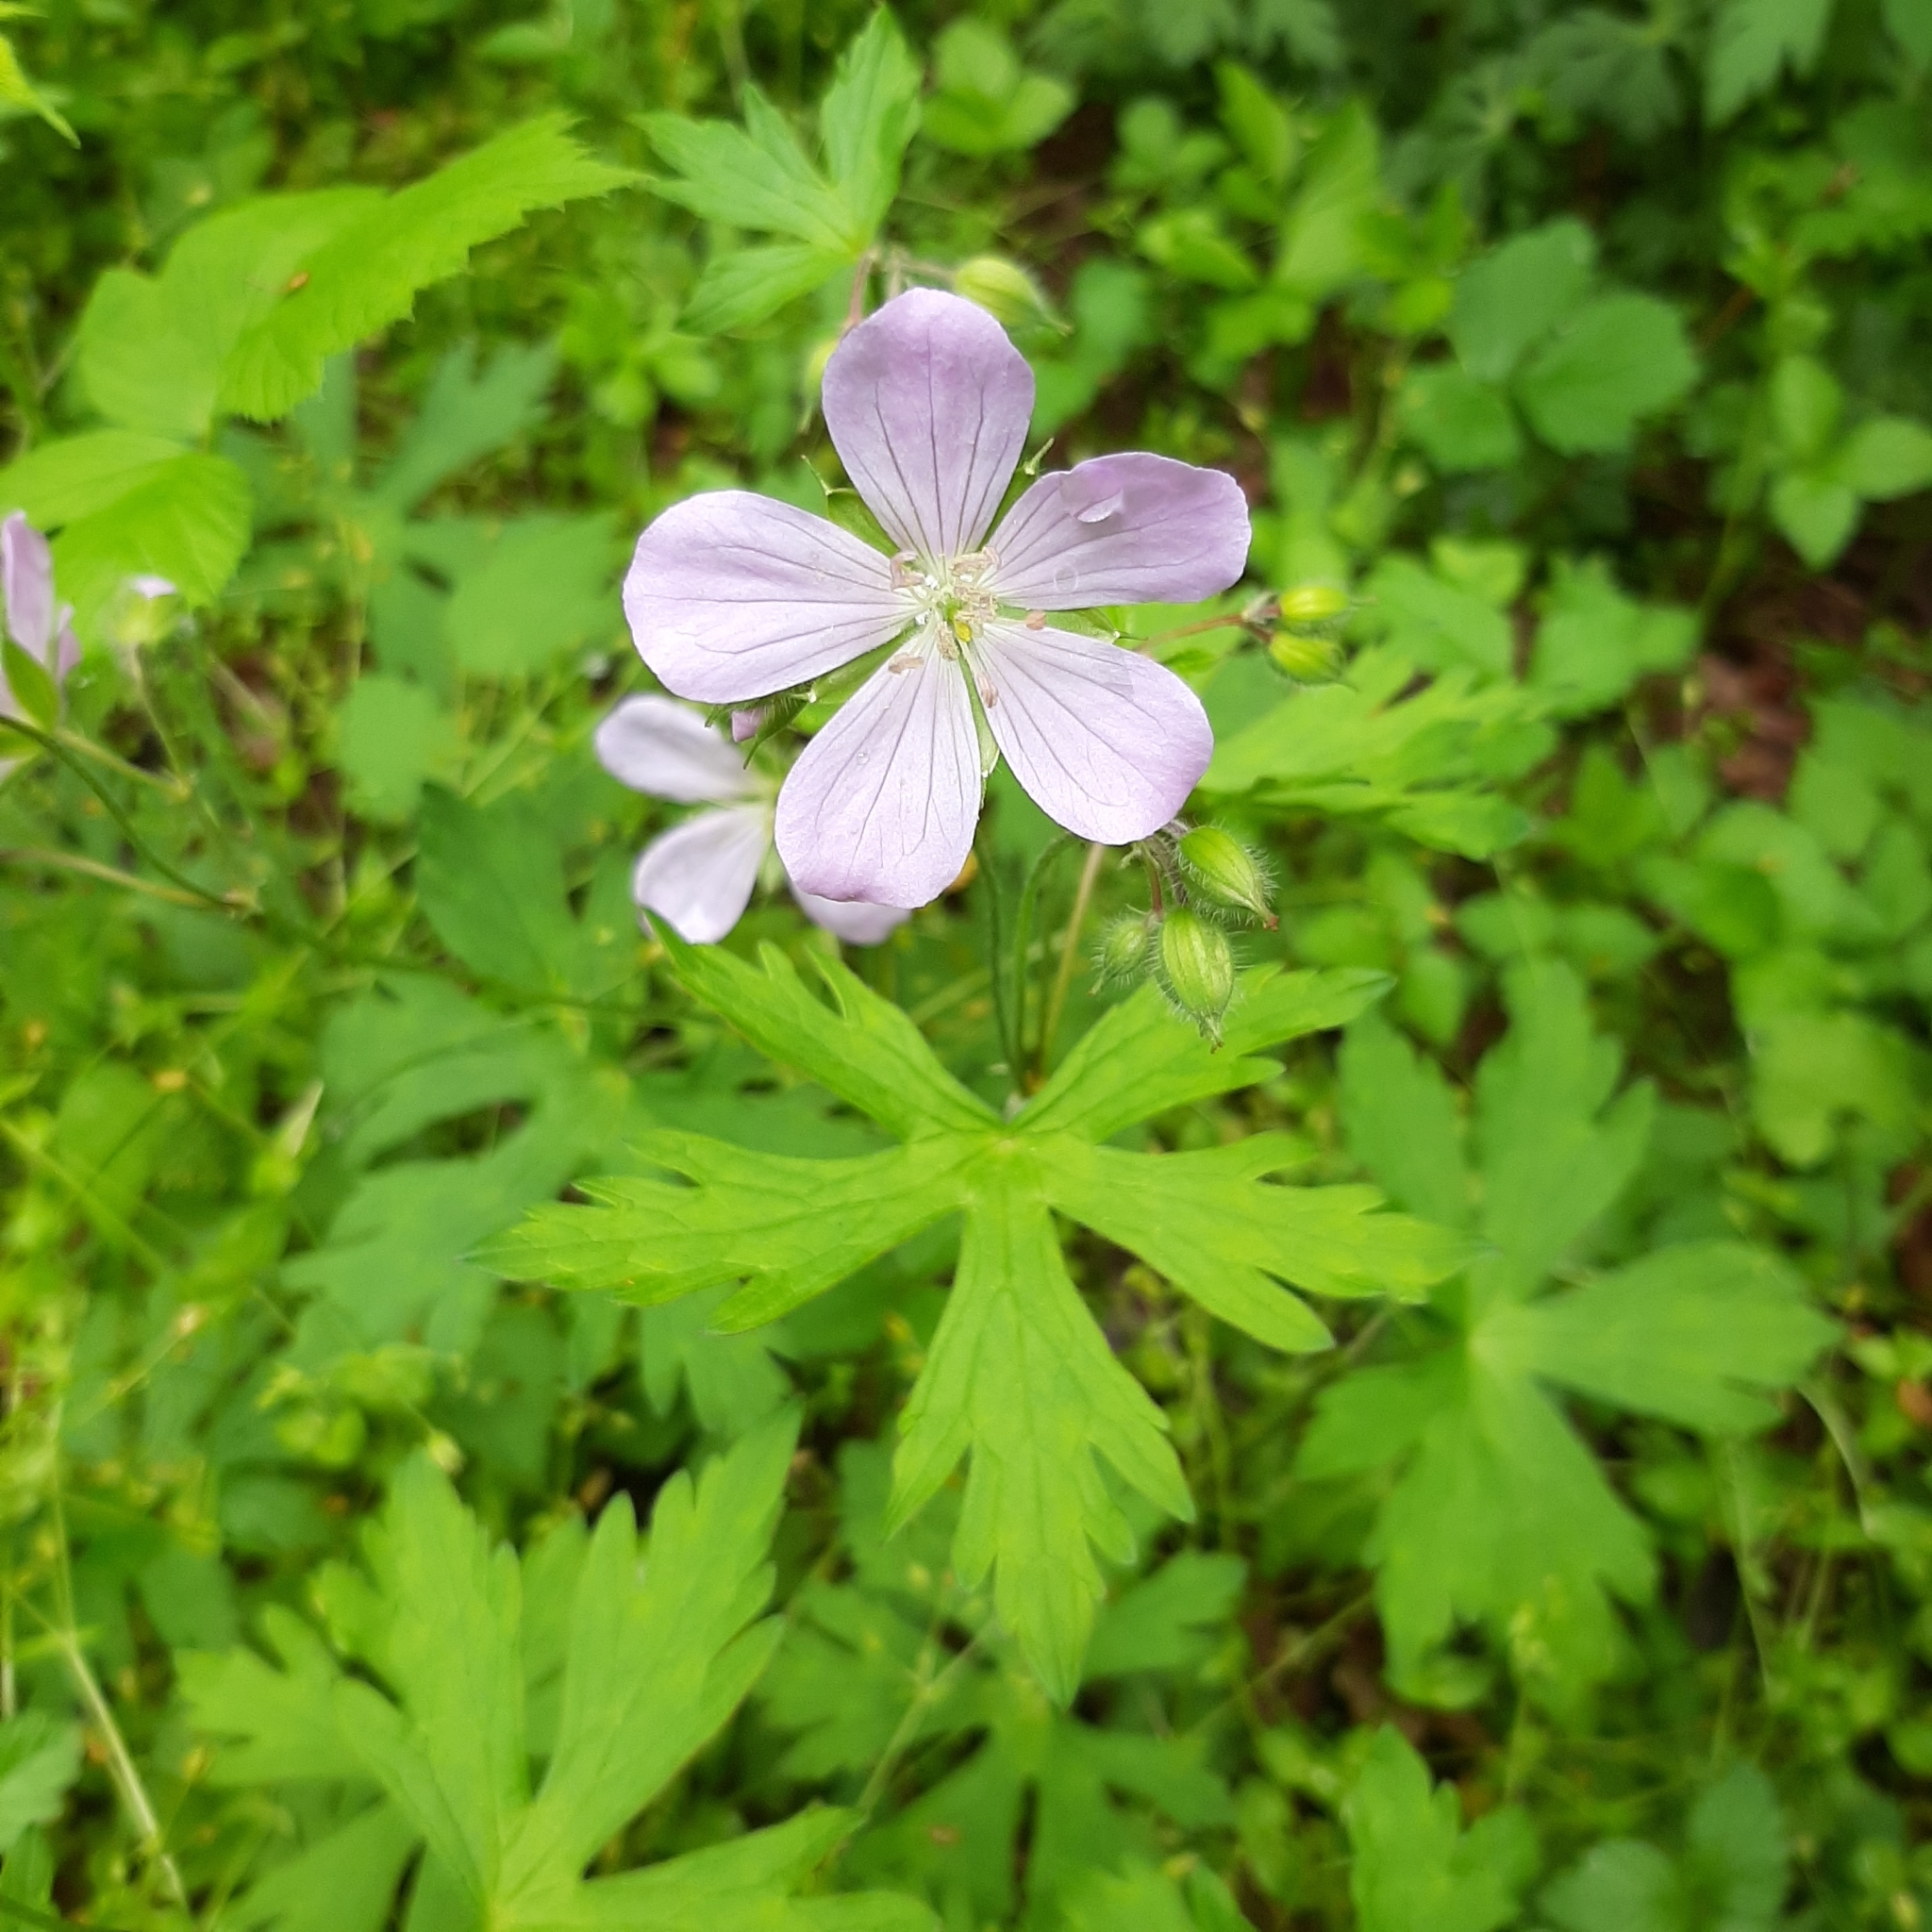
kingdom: Plantae
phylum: Tracheophyta
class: Magnoliopsida
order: Geraniales
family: Geraniaceae
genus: Geranium
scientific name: Geranium maculatum
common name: Spotted geranium
